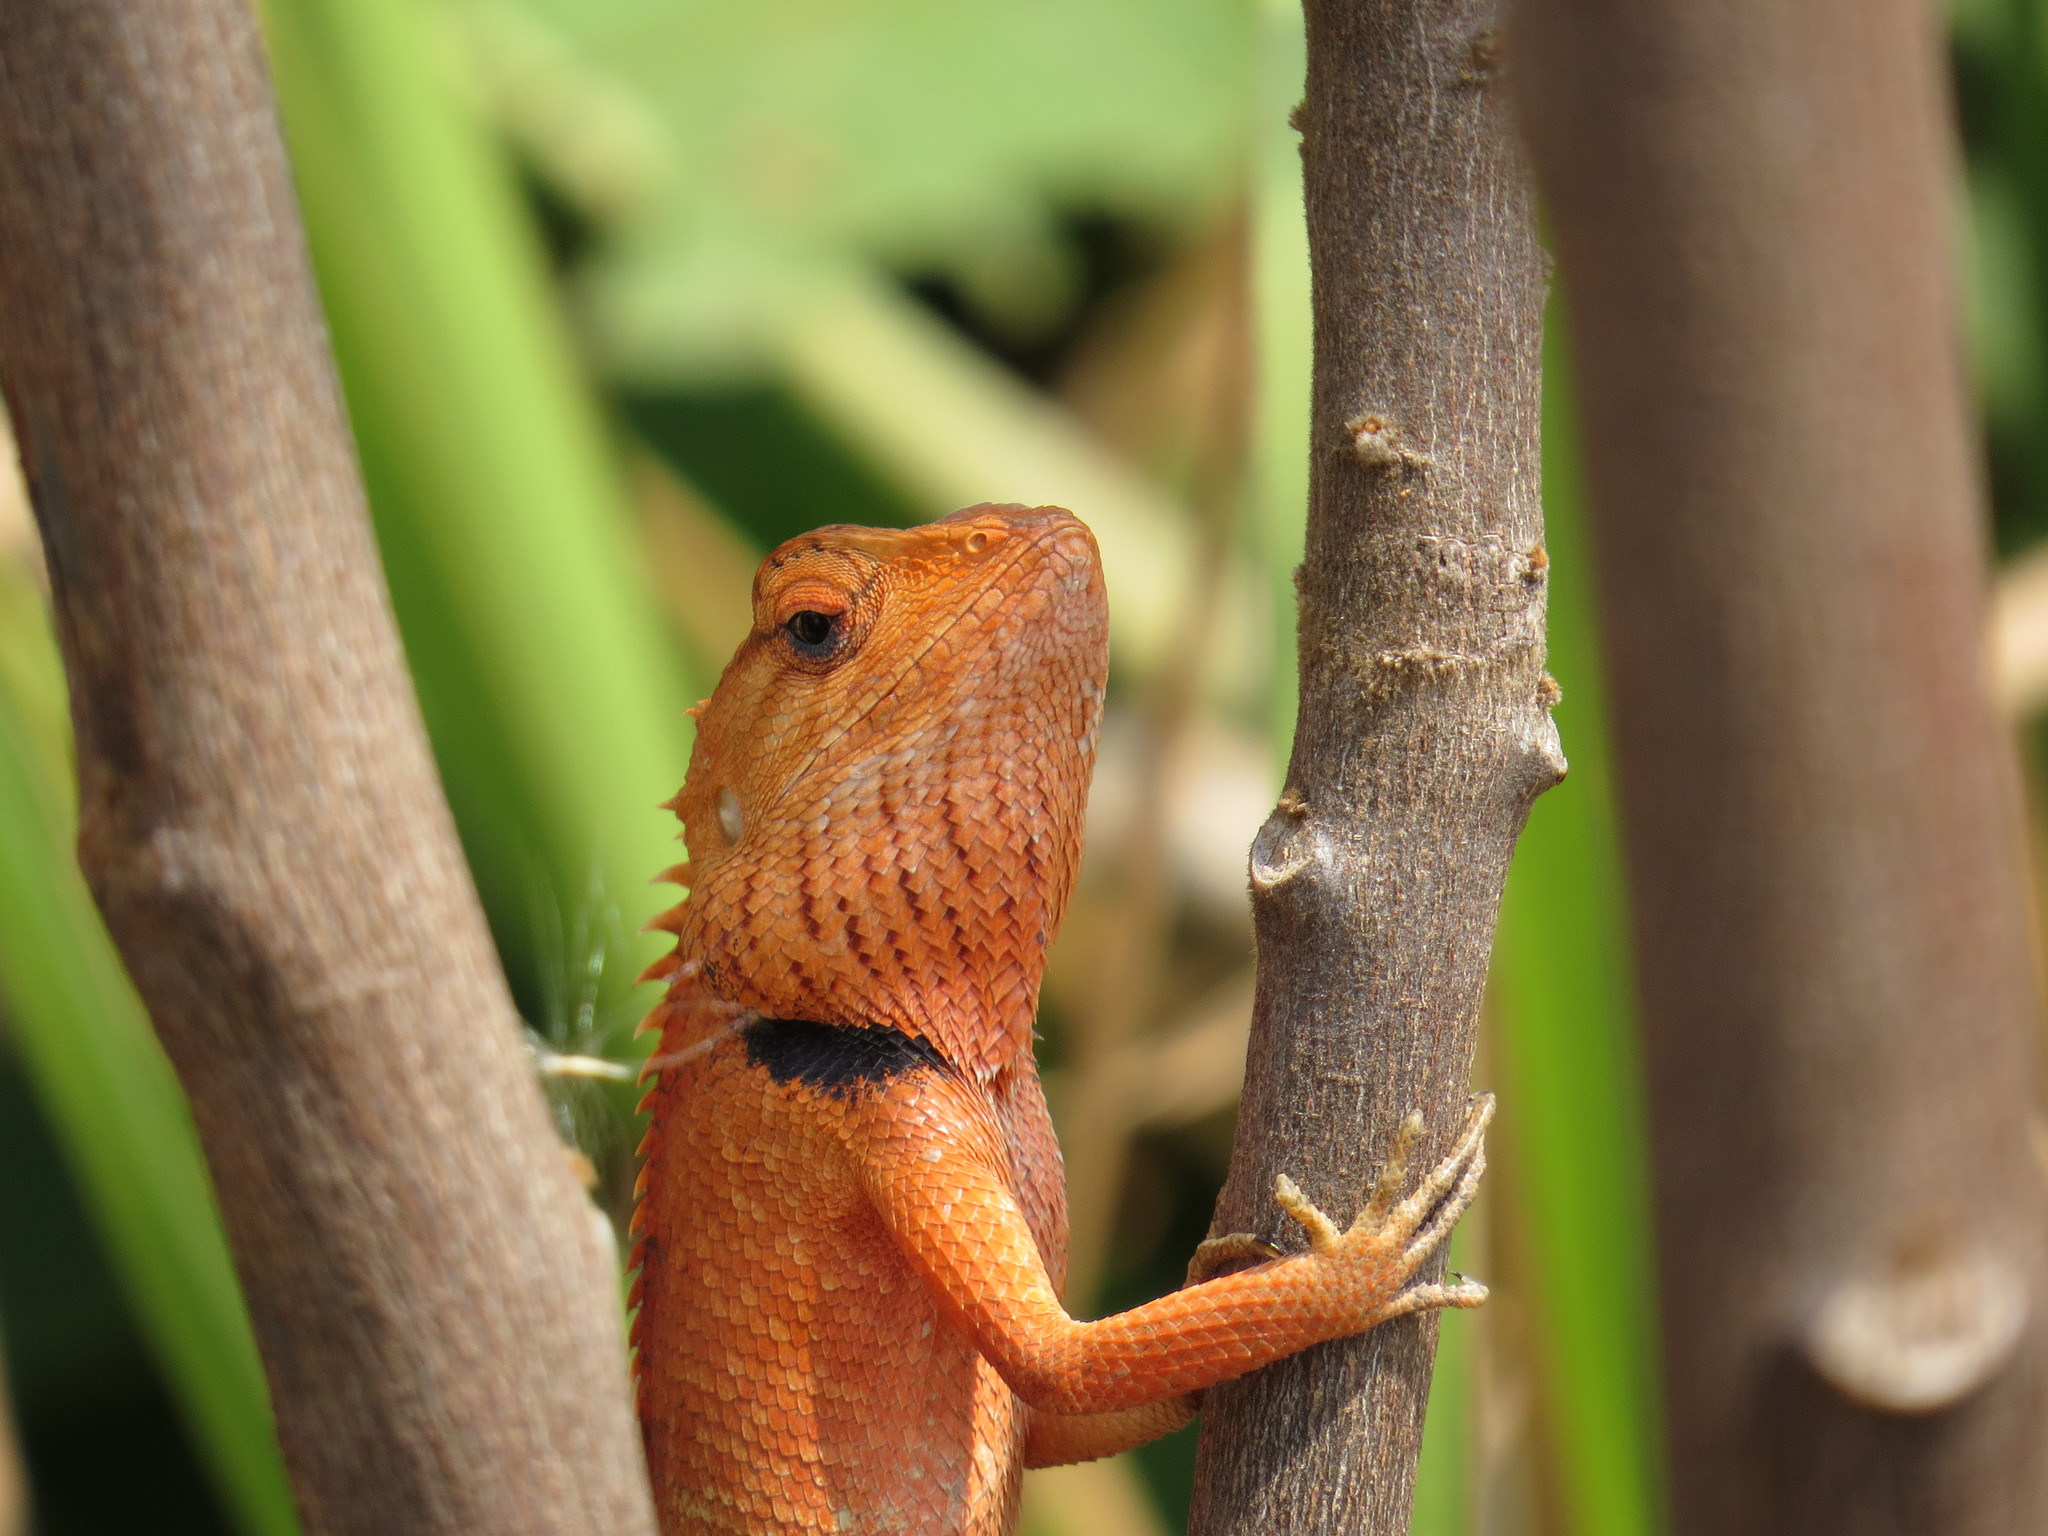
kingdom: Animalia
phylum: Chordata
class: Squamata
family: Agamidae
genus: Calotes
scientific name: Calotes versicolor
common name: Oriental garden lizard
